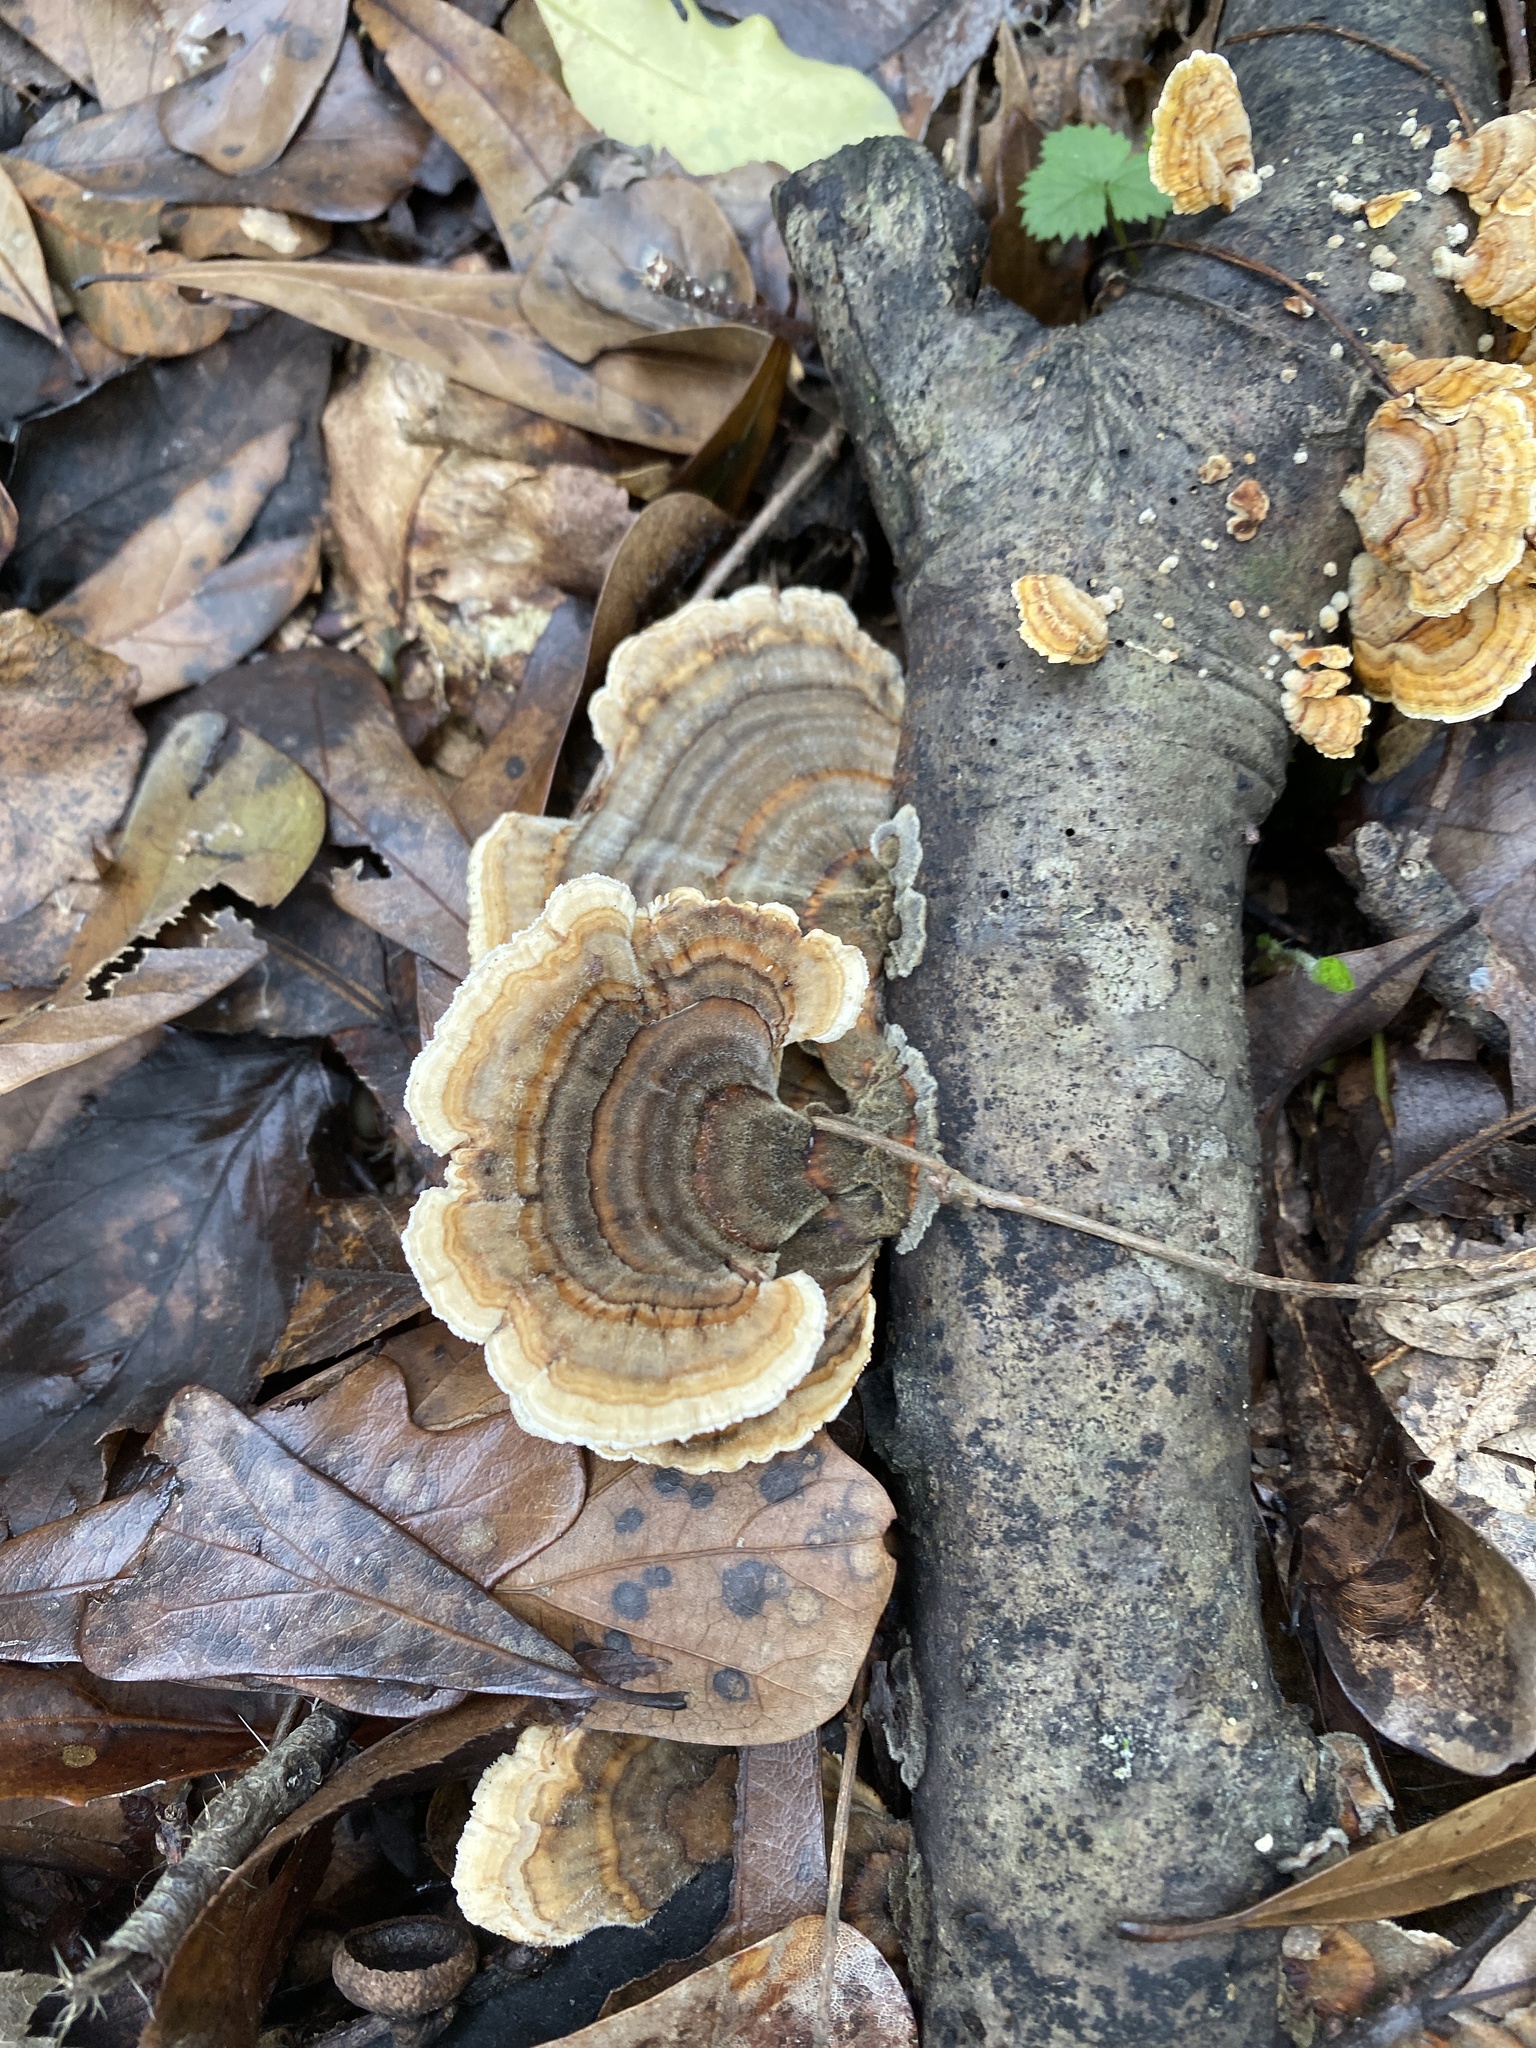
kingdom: Fungi
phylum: Basidiomycota
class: Agaricomycetes
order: Polyporales
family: Polyporaceae
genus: Trametes
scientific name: Trametes versicolor
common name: Turkeytail
